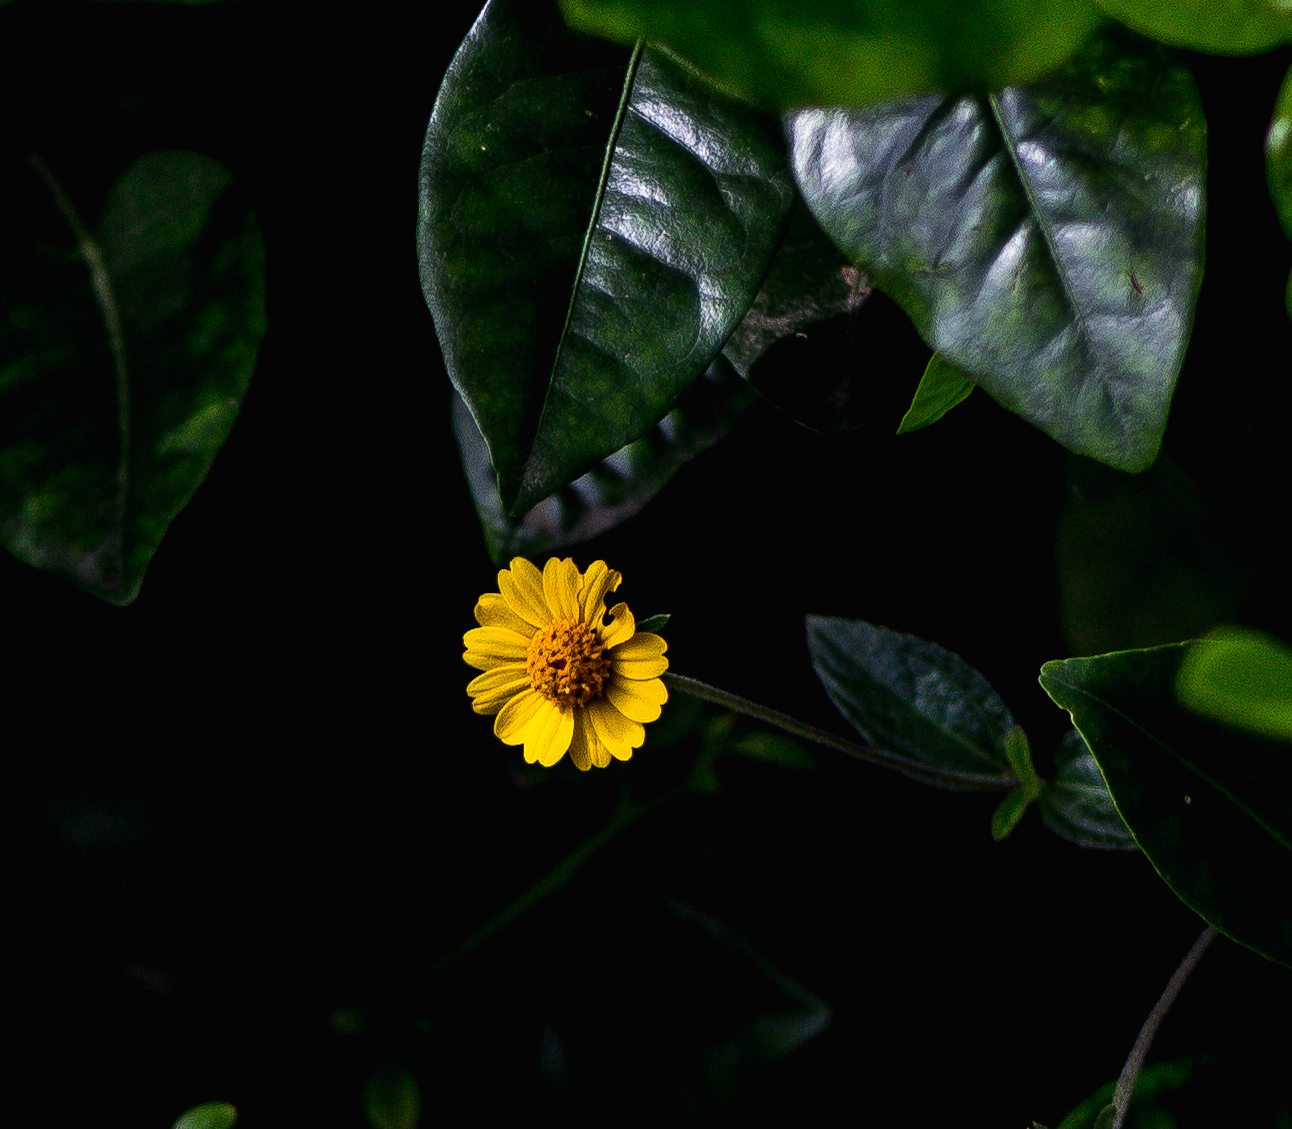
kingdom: Plantae
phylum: Tracheophyta
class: Magnoliopsida
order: Asterales
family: Asteraceae
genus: Sphagneticola
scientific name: Sphagneticola trilobata
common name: Bay biscayne creeping-oxeye
